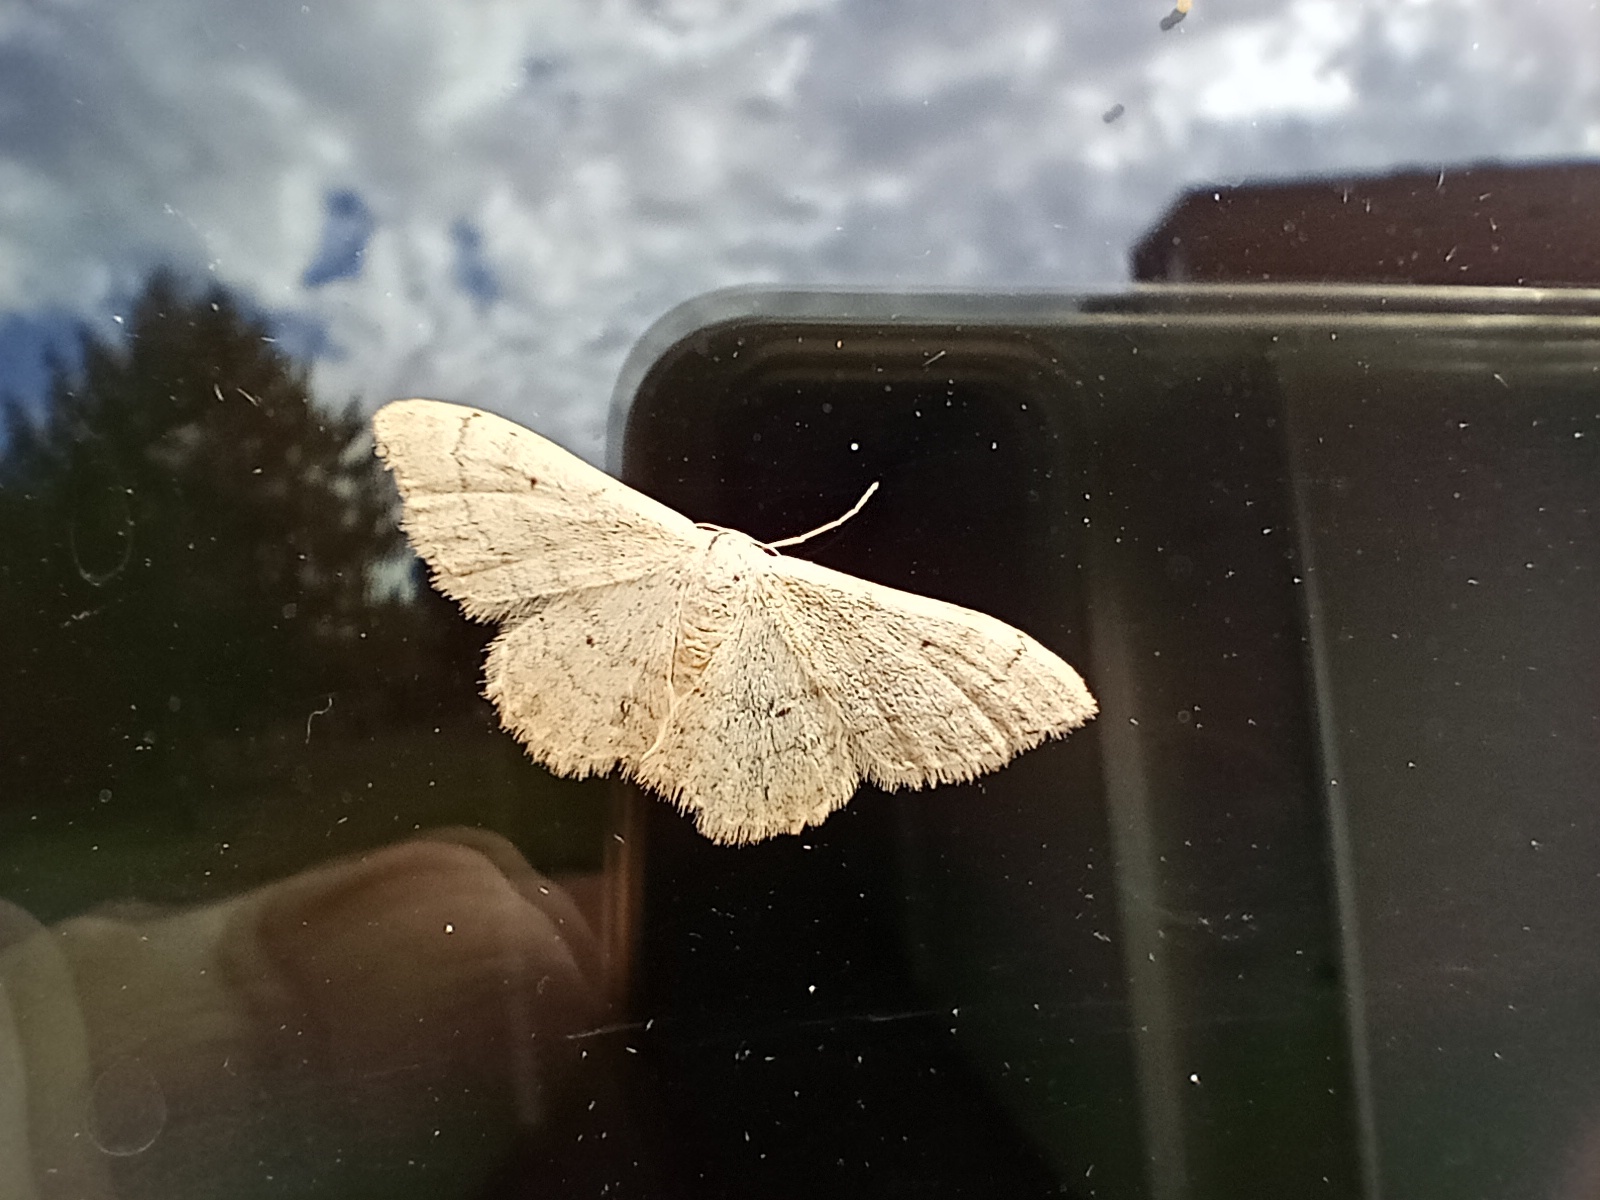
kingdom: Animalia
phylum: Arthropoda
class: Insecta
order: Lepidoptera
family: Geometridae
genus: Idaea
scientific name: Idaea straminata
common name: Plain wave
